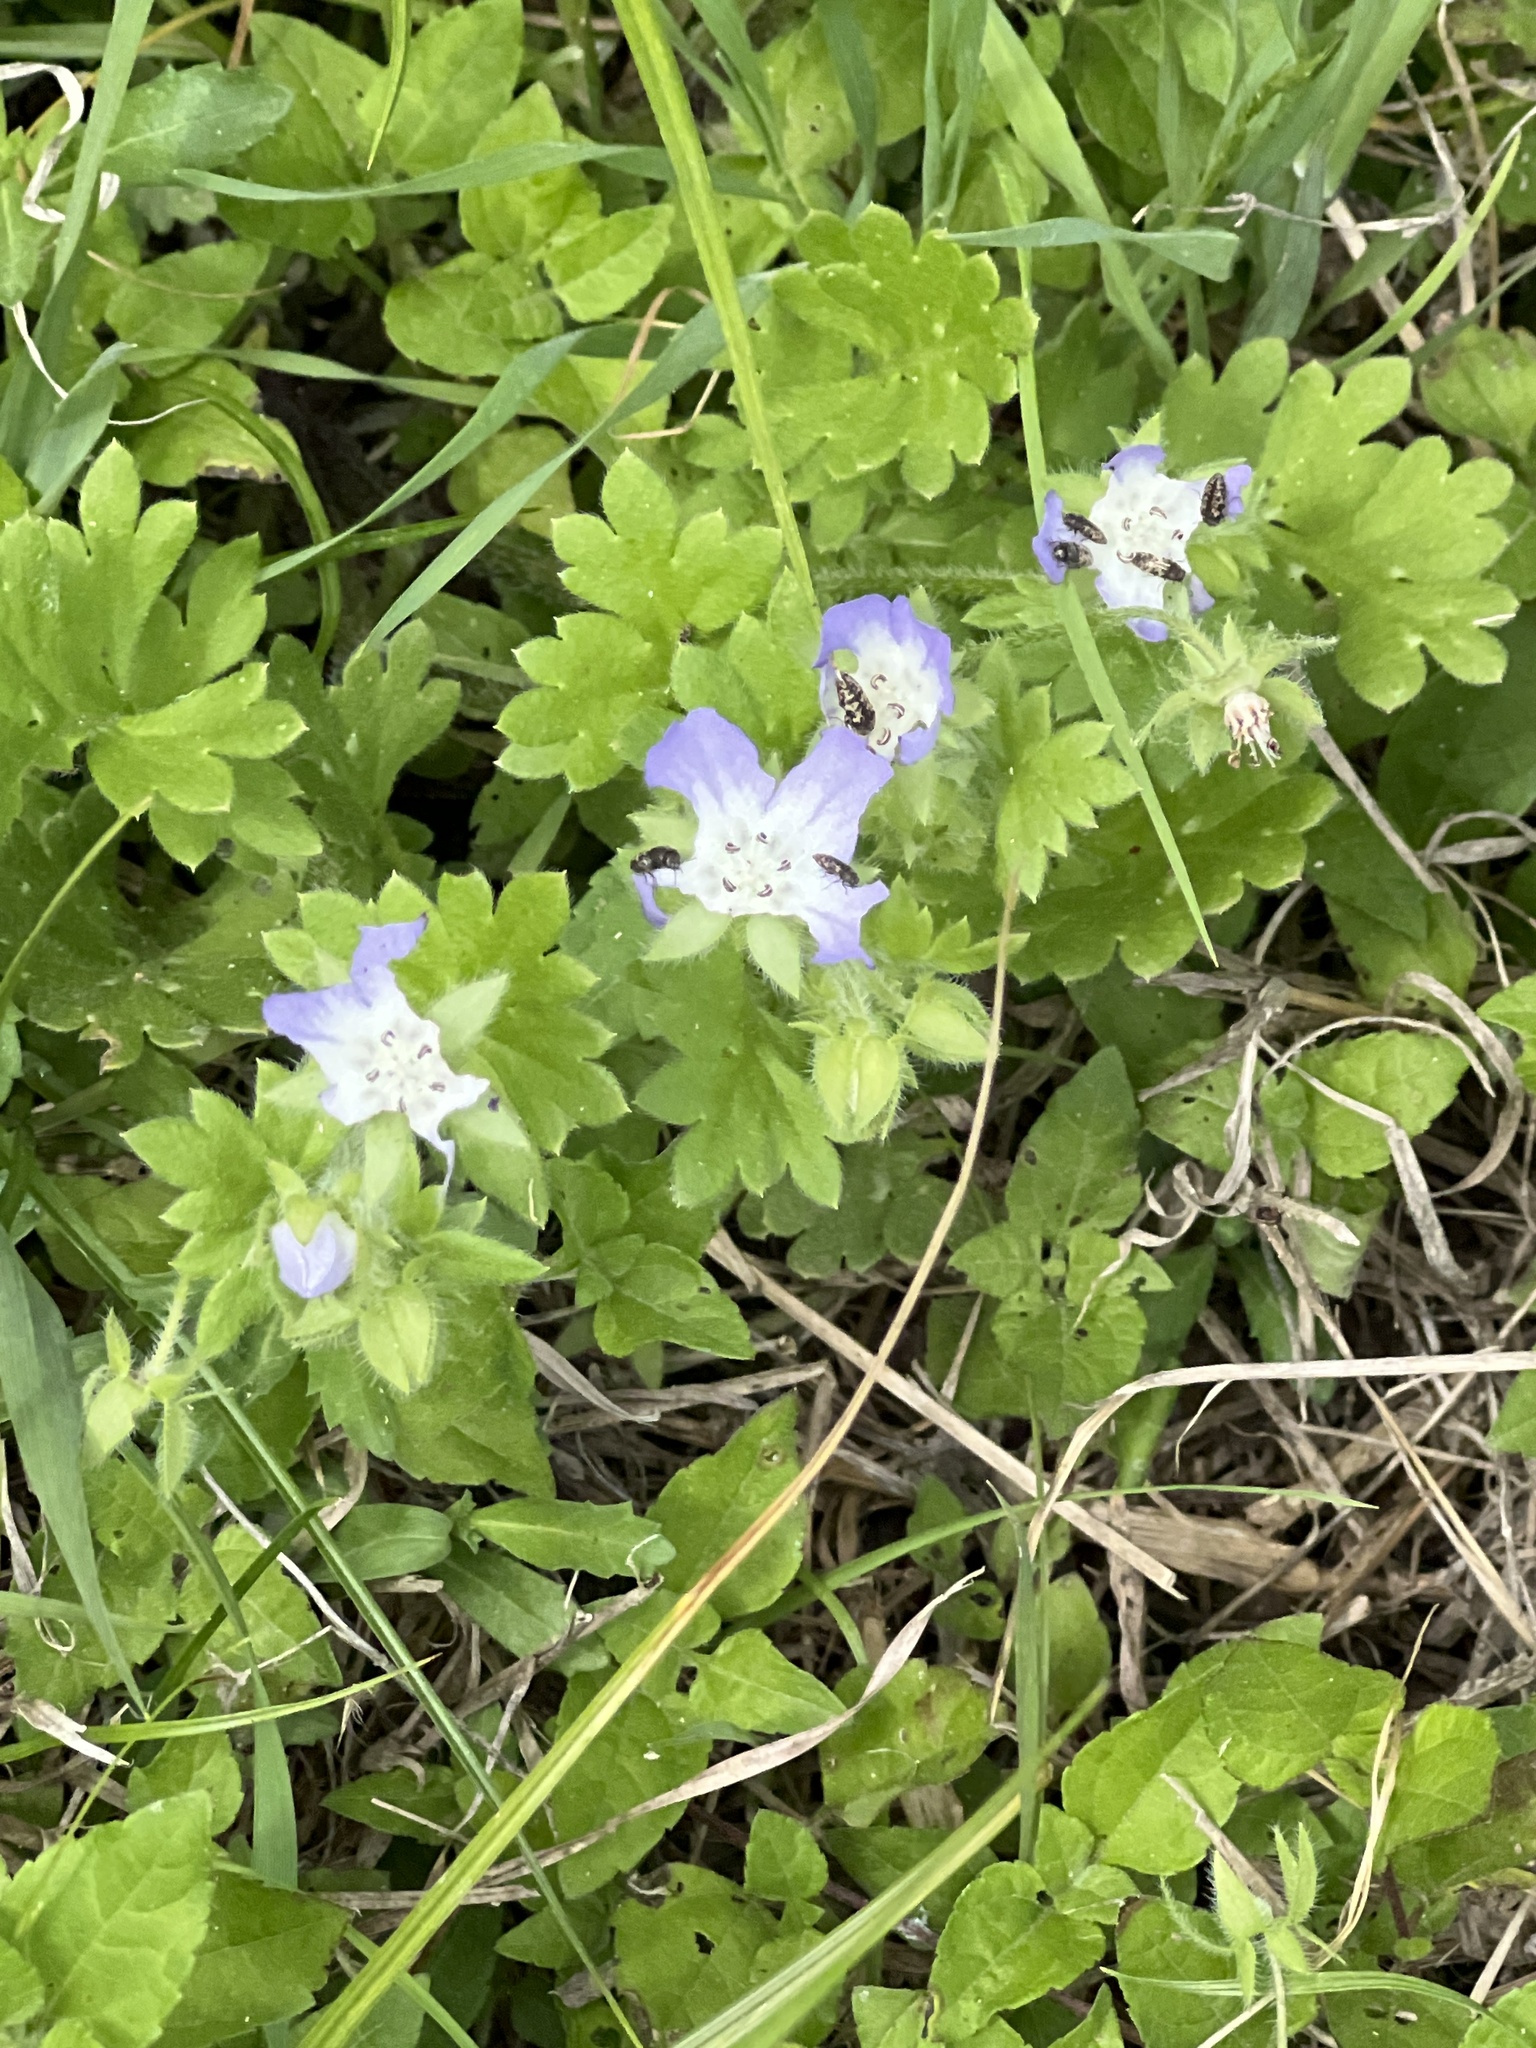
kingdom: Plantae
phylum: Tracheophyta
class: Magnoliopsida
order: Boraginales
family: Hydrophyllaceae
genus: Nemophila
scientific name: Nemophila phacelioides
